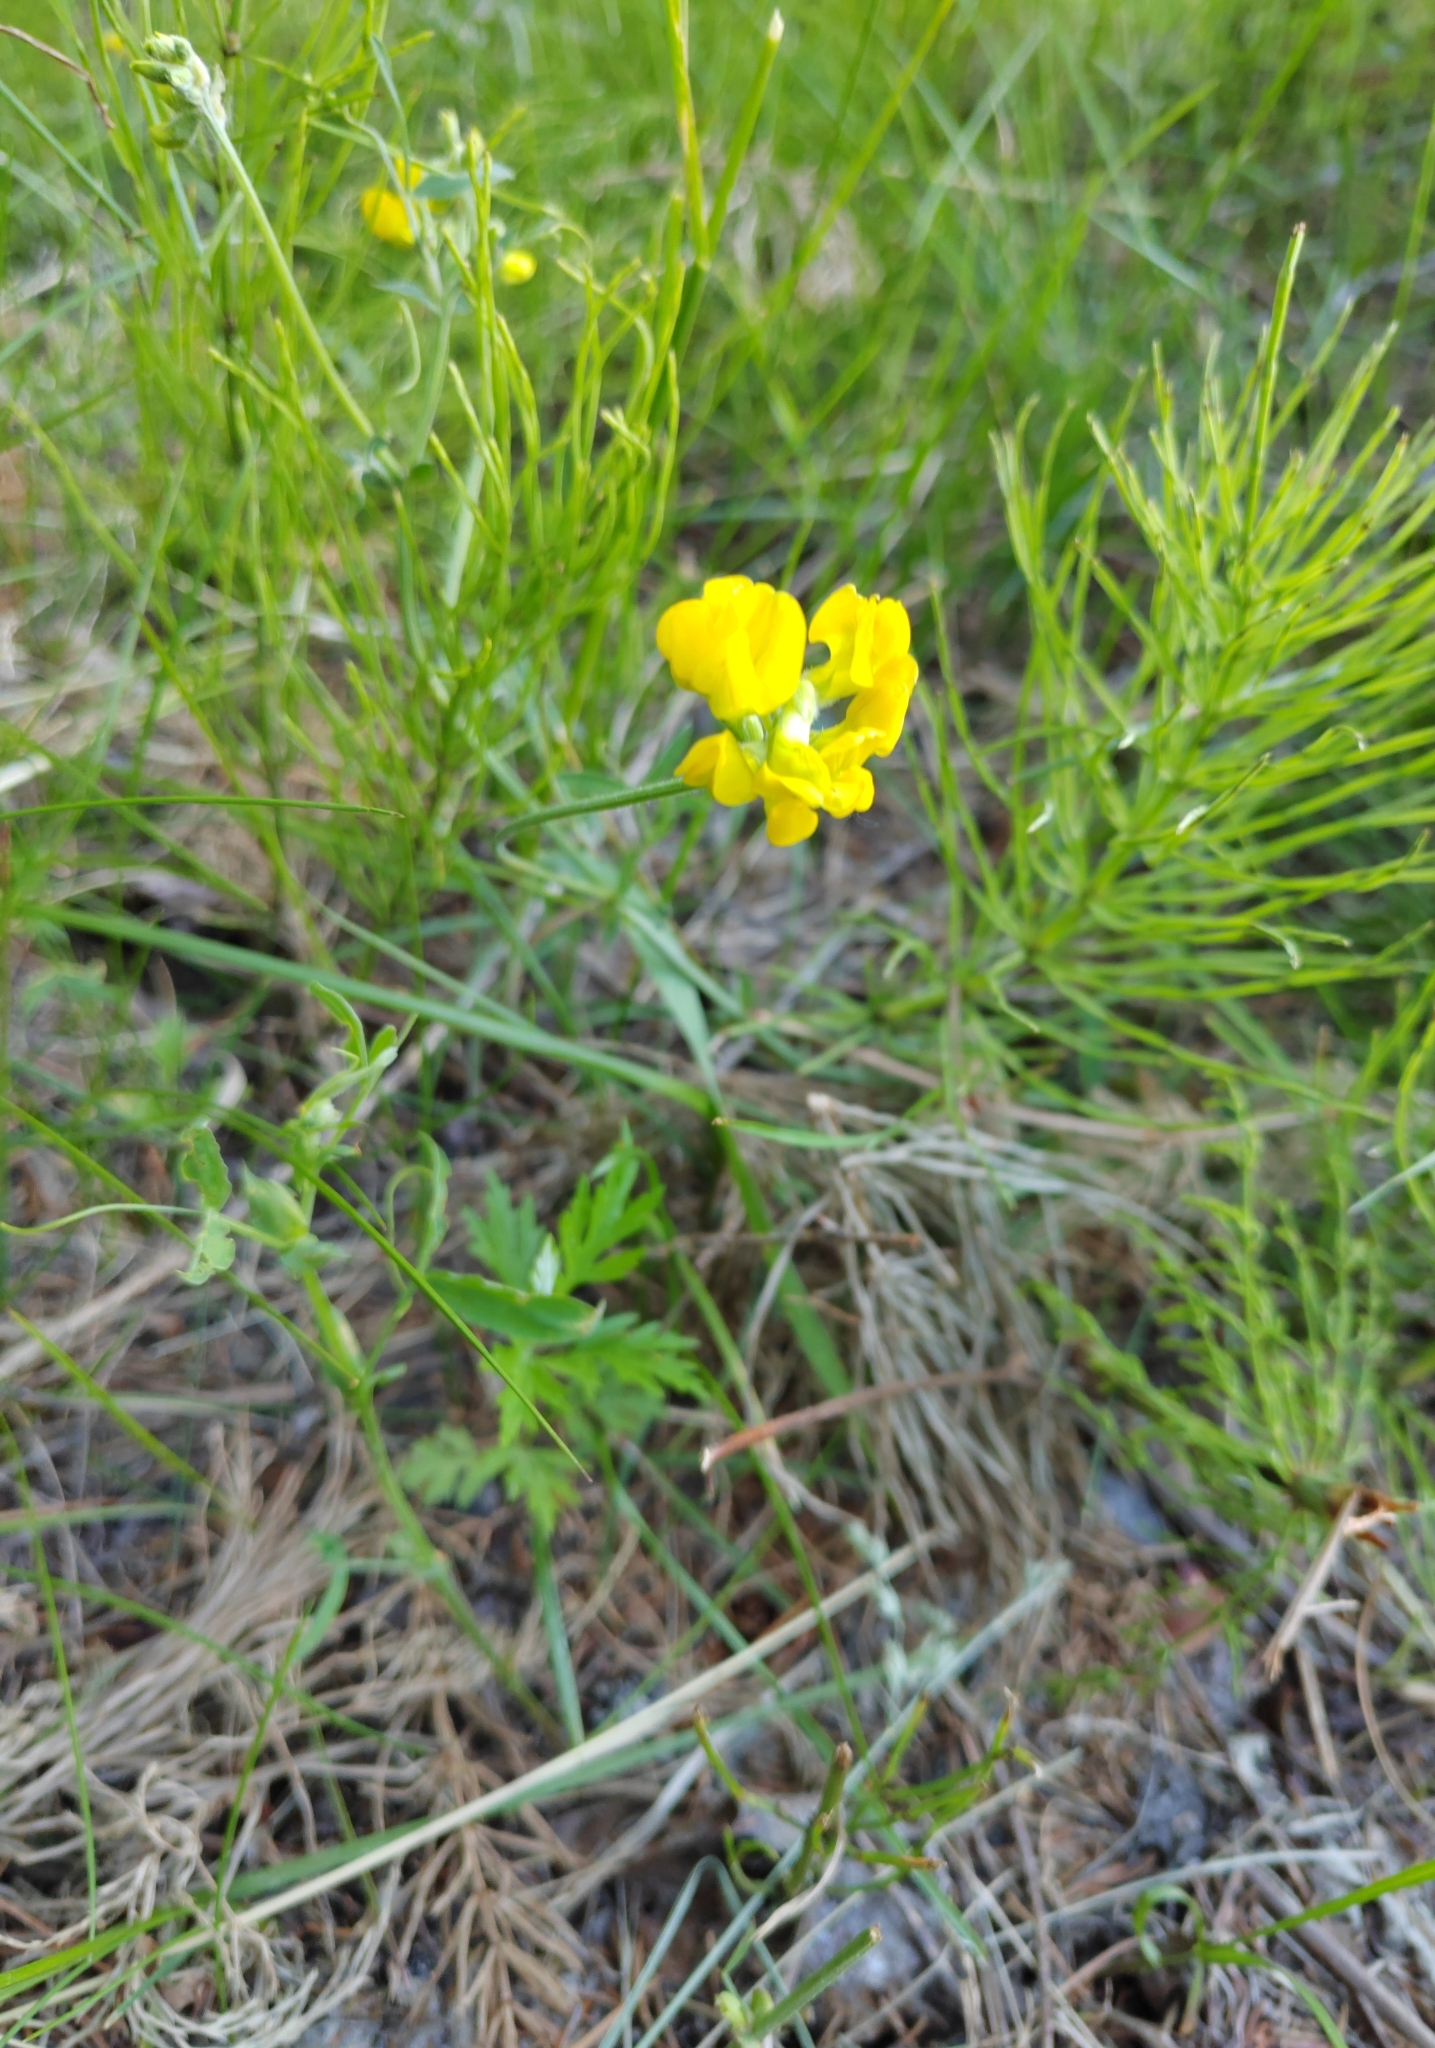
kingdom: Plantae
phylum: Tracheophyta
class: Magnoliopsida
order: Fabales
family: Fabaceae
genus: Lathyrus
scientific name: Lathyrus pratensis
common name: Meadow vetchling
